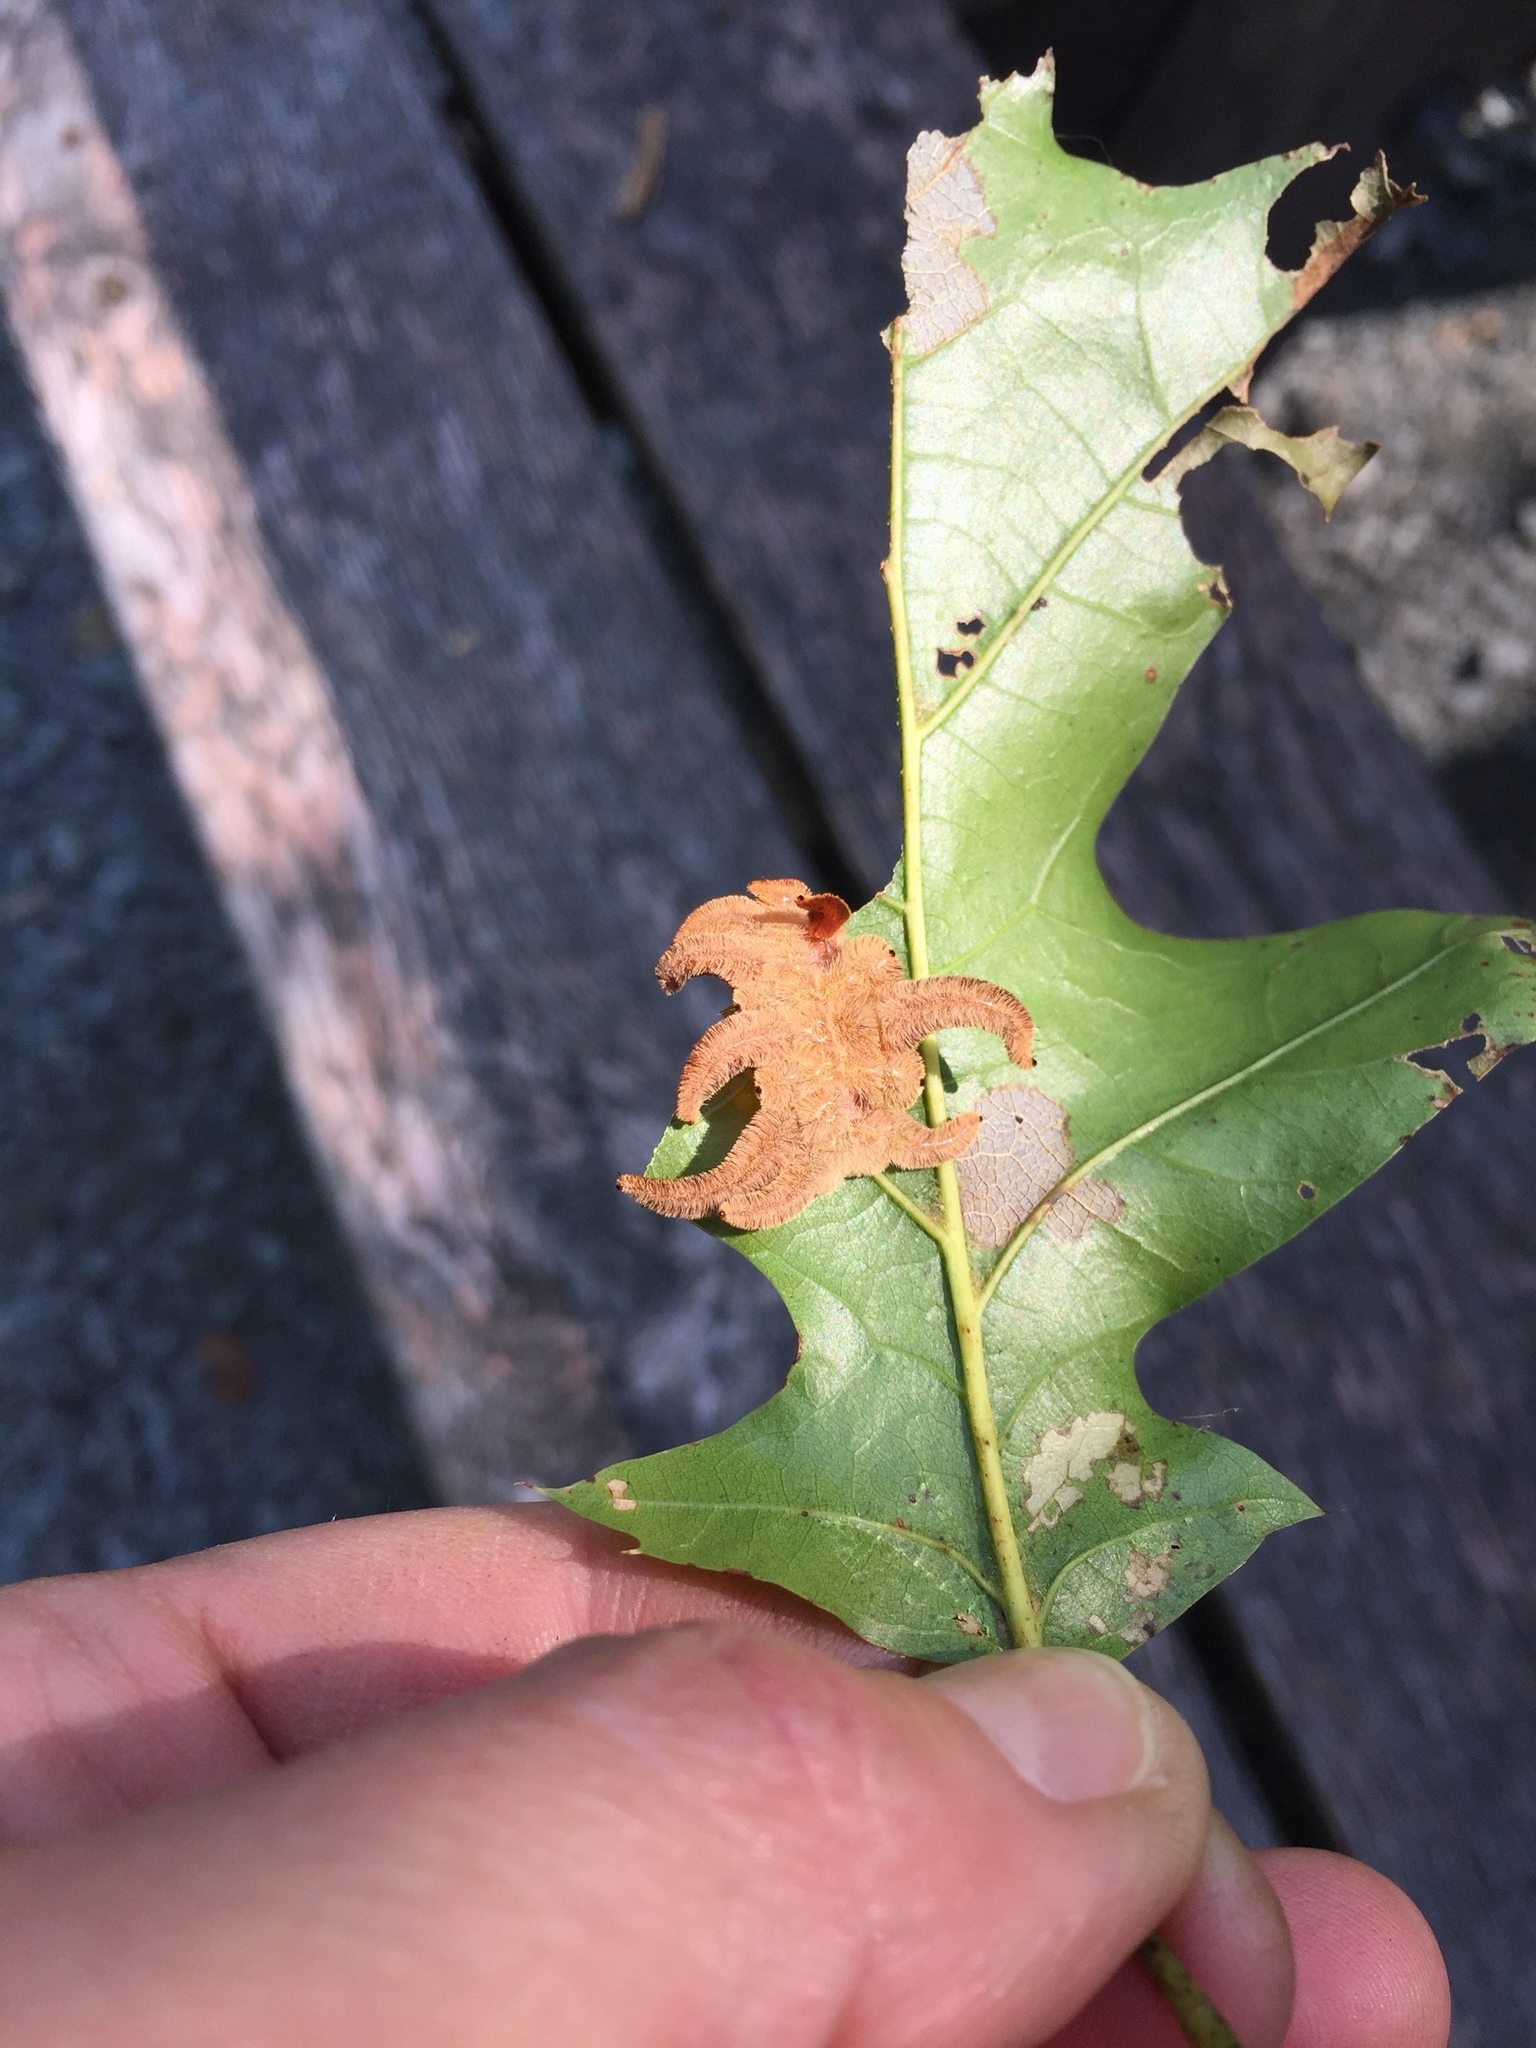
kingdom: Animalia
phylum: Arthropoda
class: Insecta
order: Lepidoptera
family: Limacodidae
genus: Phobetron
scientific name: Phobetron pithecium
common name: Hag moth
